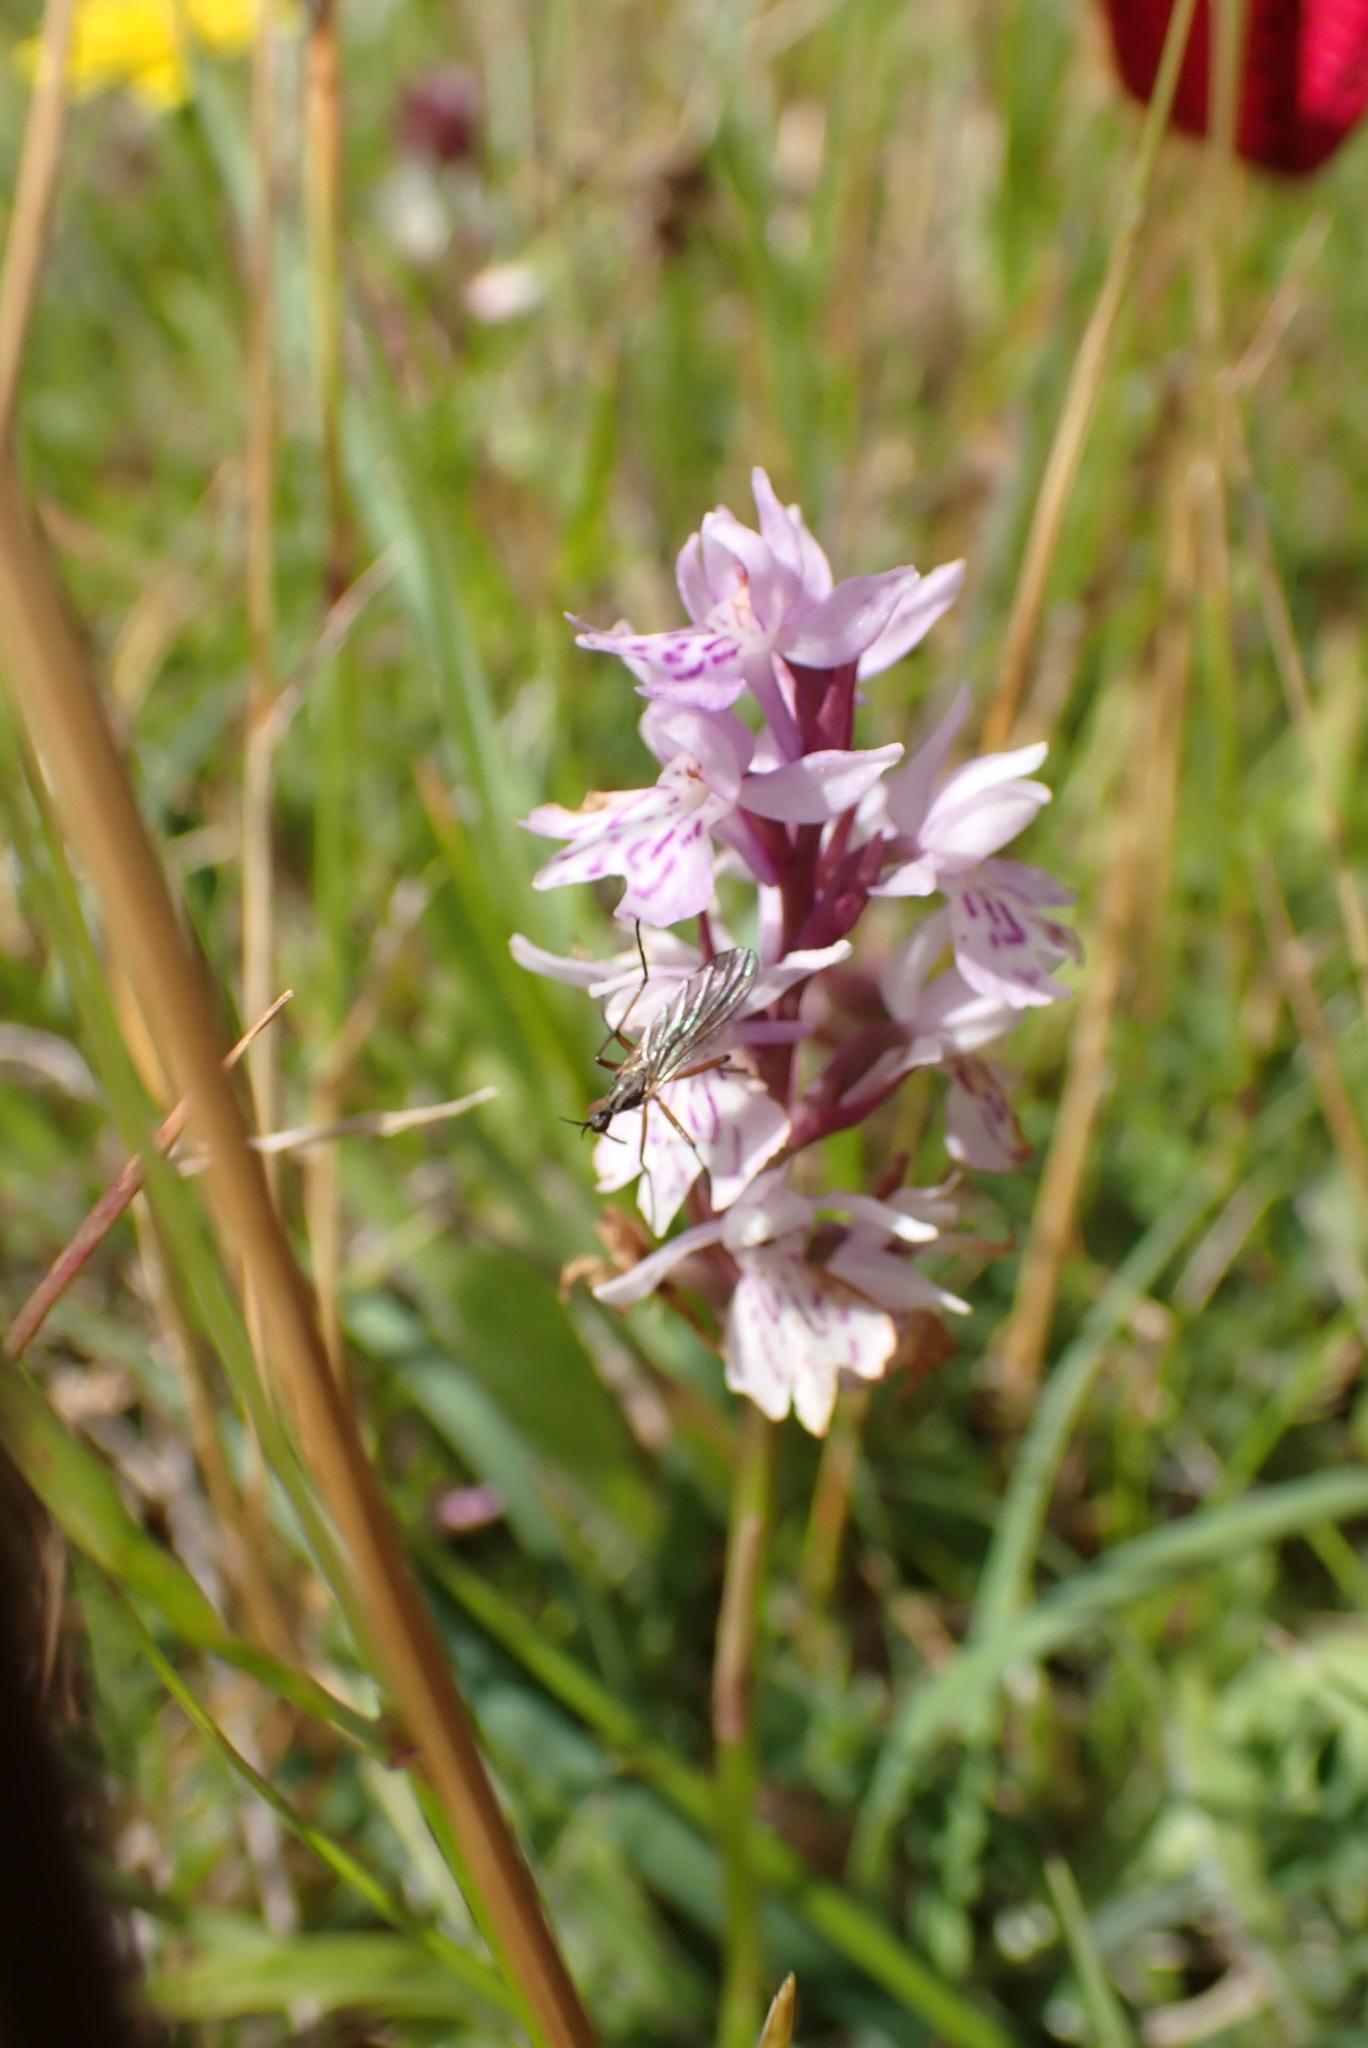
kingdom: Plantae
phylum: Tracheophyta
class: Liliopsida
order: Asparagales
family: Orchidaceae
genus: Dactylorhiza
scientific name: Dactylorhiza maculata
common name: Heath spotted-orchid
